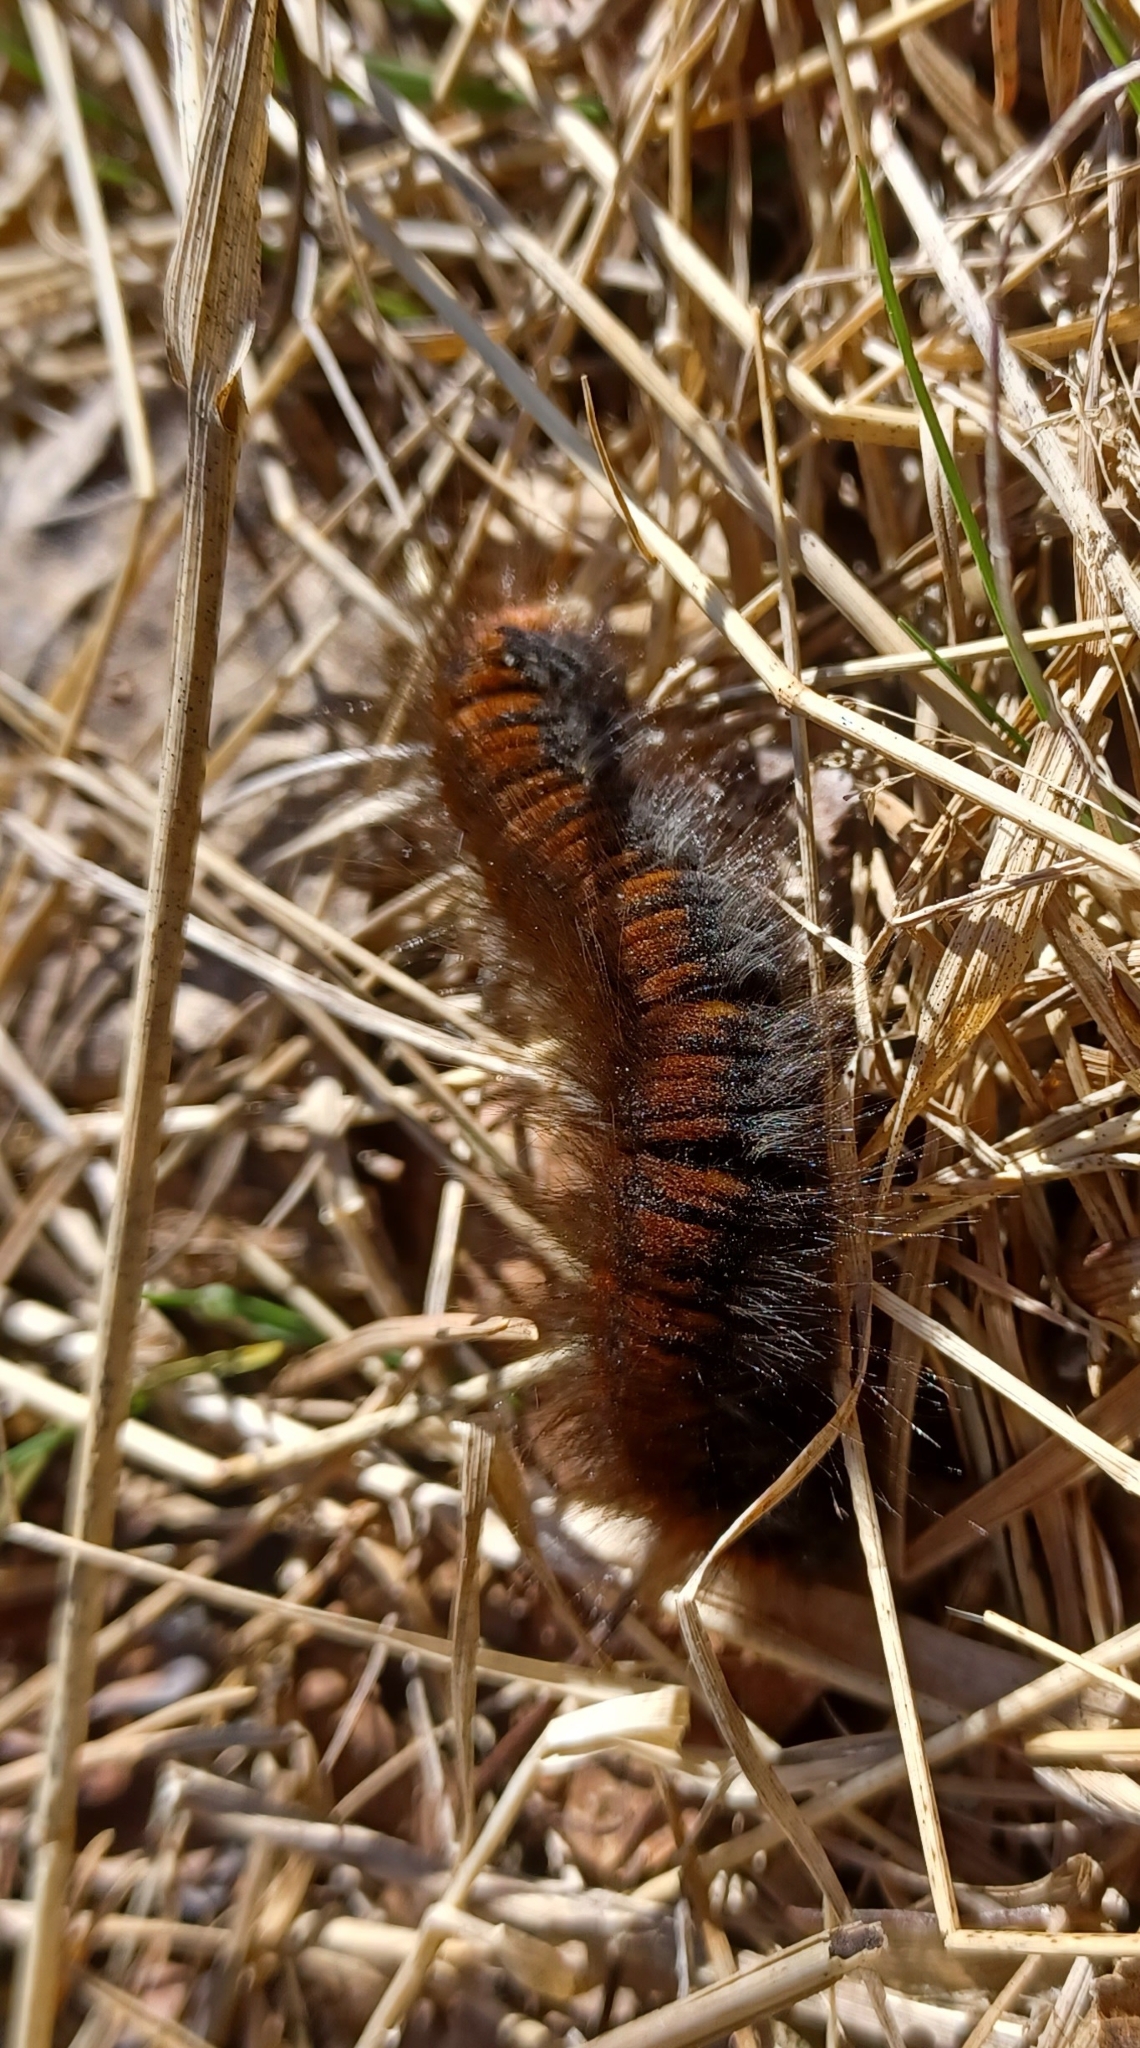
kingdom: Animalia
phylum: Arthropoda
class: Insecta
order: Lepidoptera
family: Lasiocampidae
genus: Macrothylacia
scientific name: Macrothylacia rubi
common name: Fox moth
